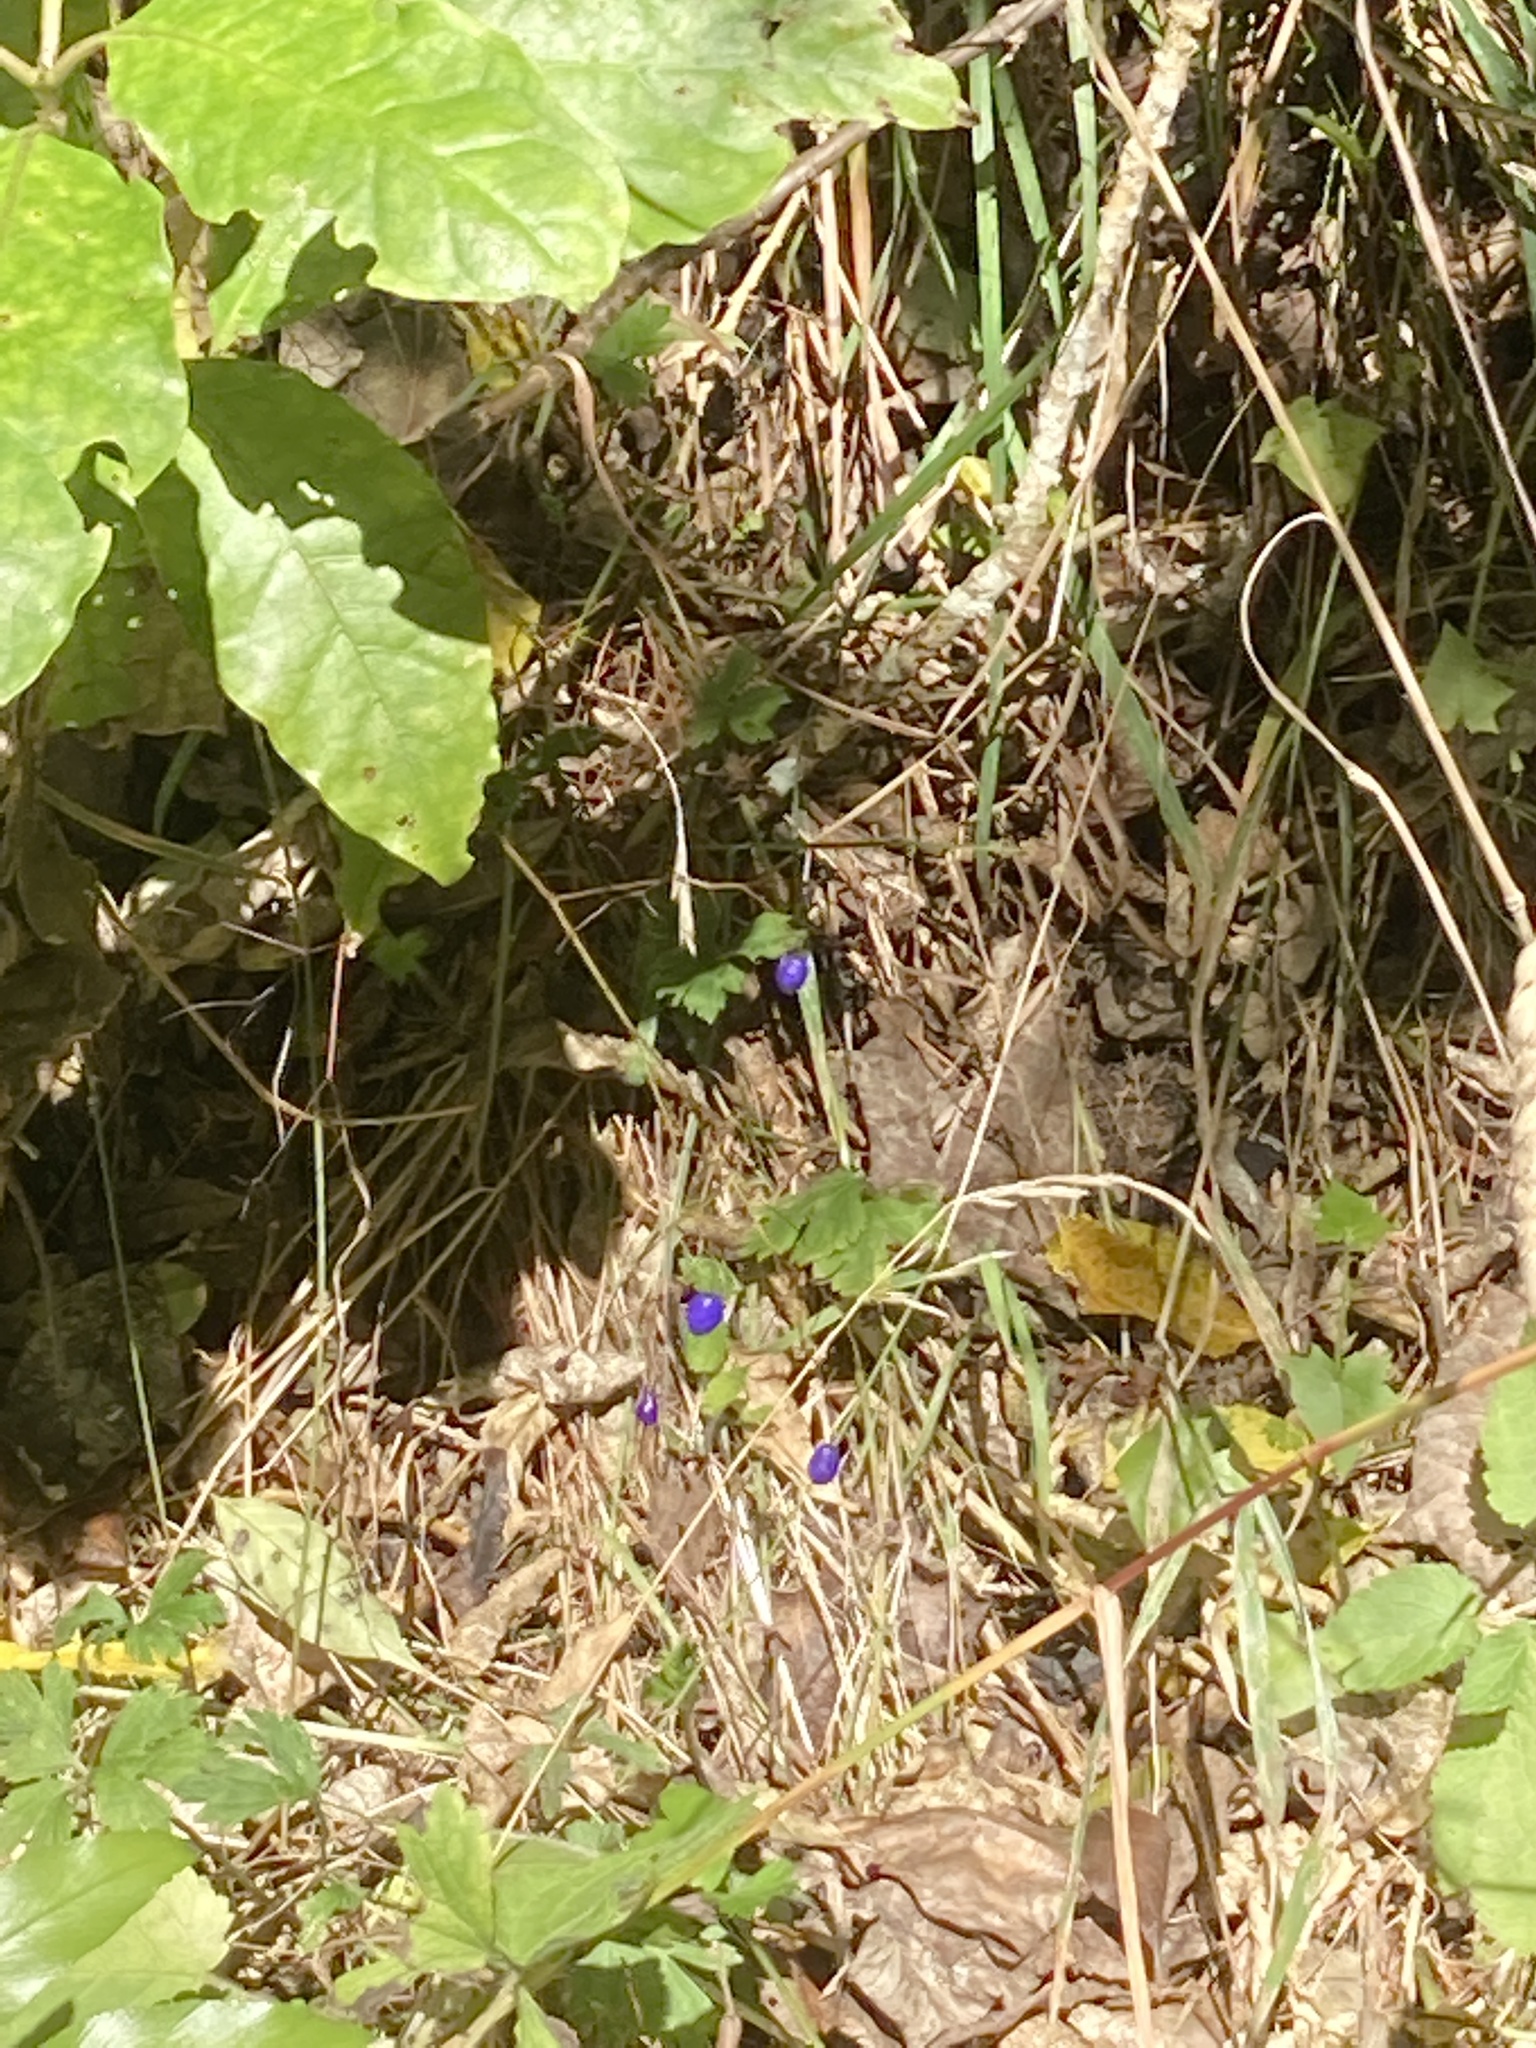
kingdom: Plantae
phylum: Tracheophyta
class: Liliopsida
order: Asparagales
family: Asphodelaceae
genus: Dianella
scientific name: Dianella nigra
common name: New zealand-blueberry
